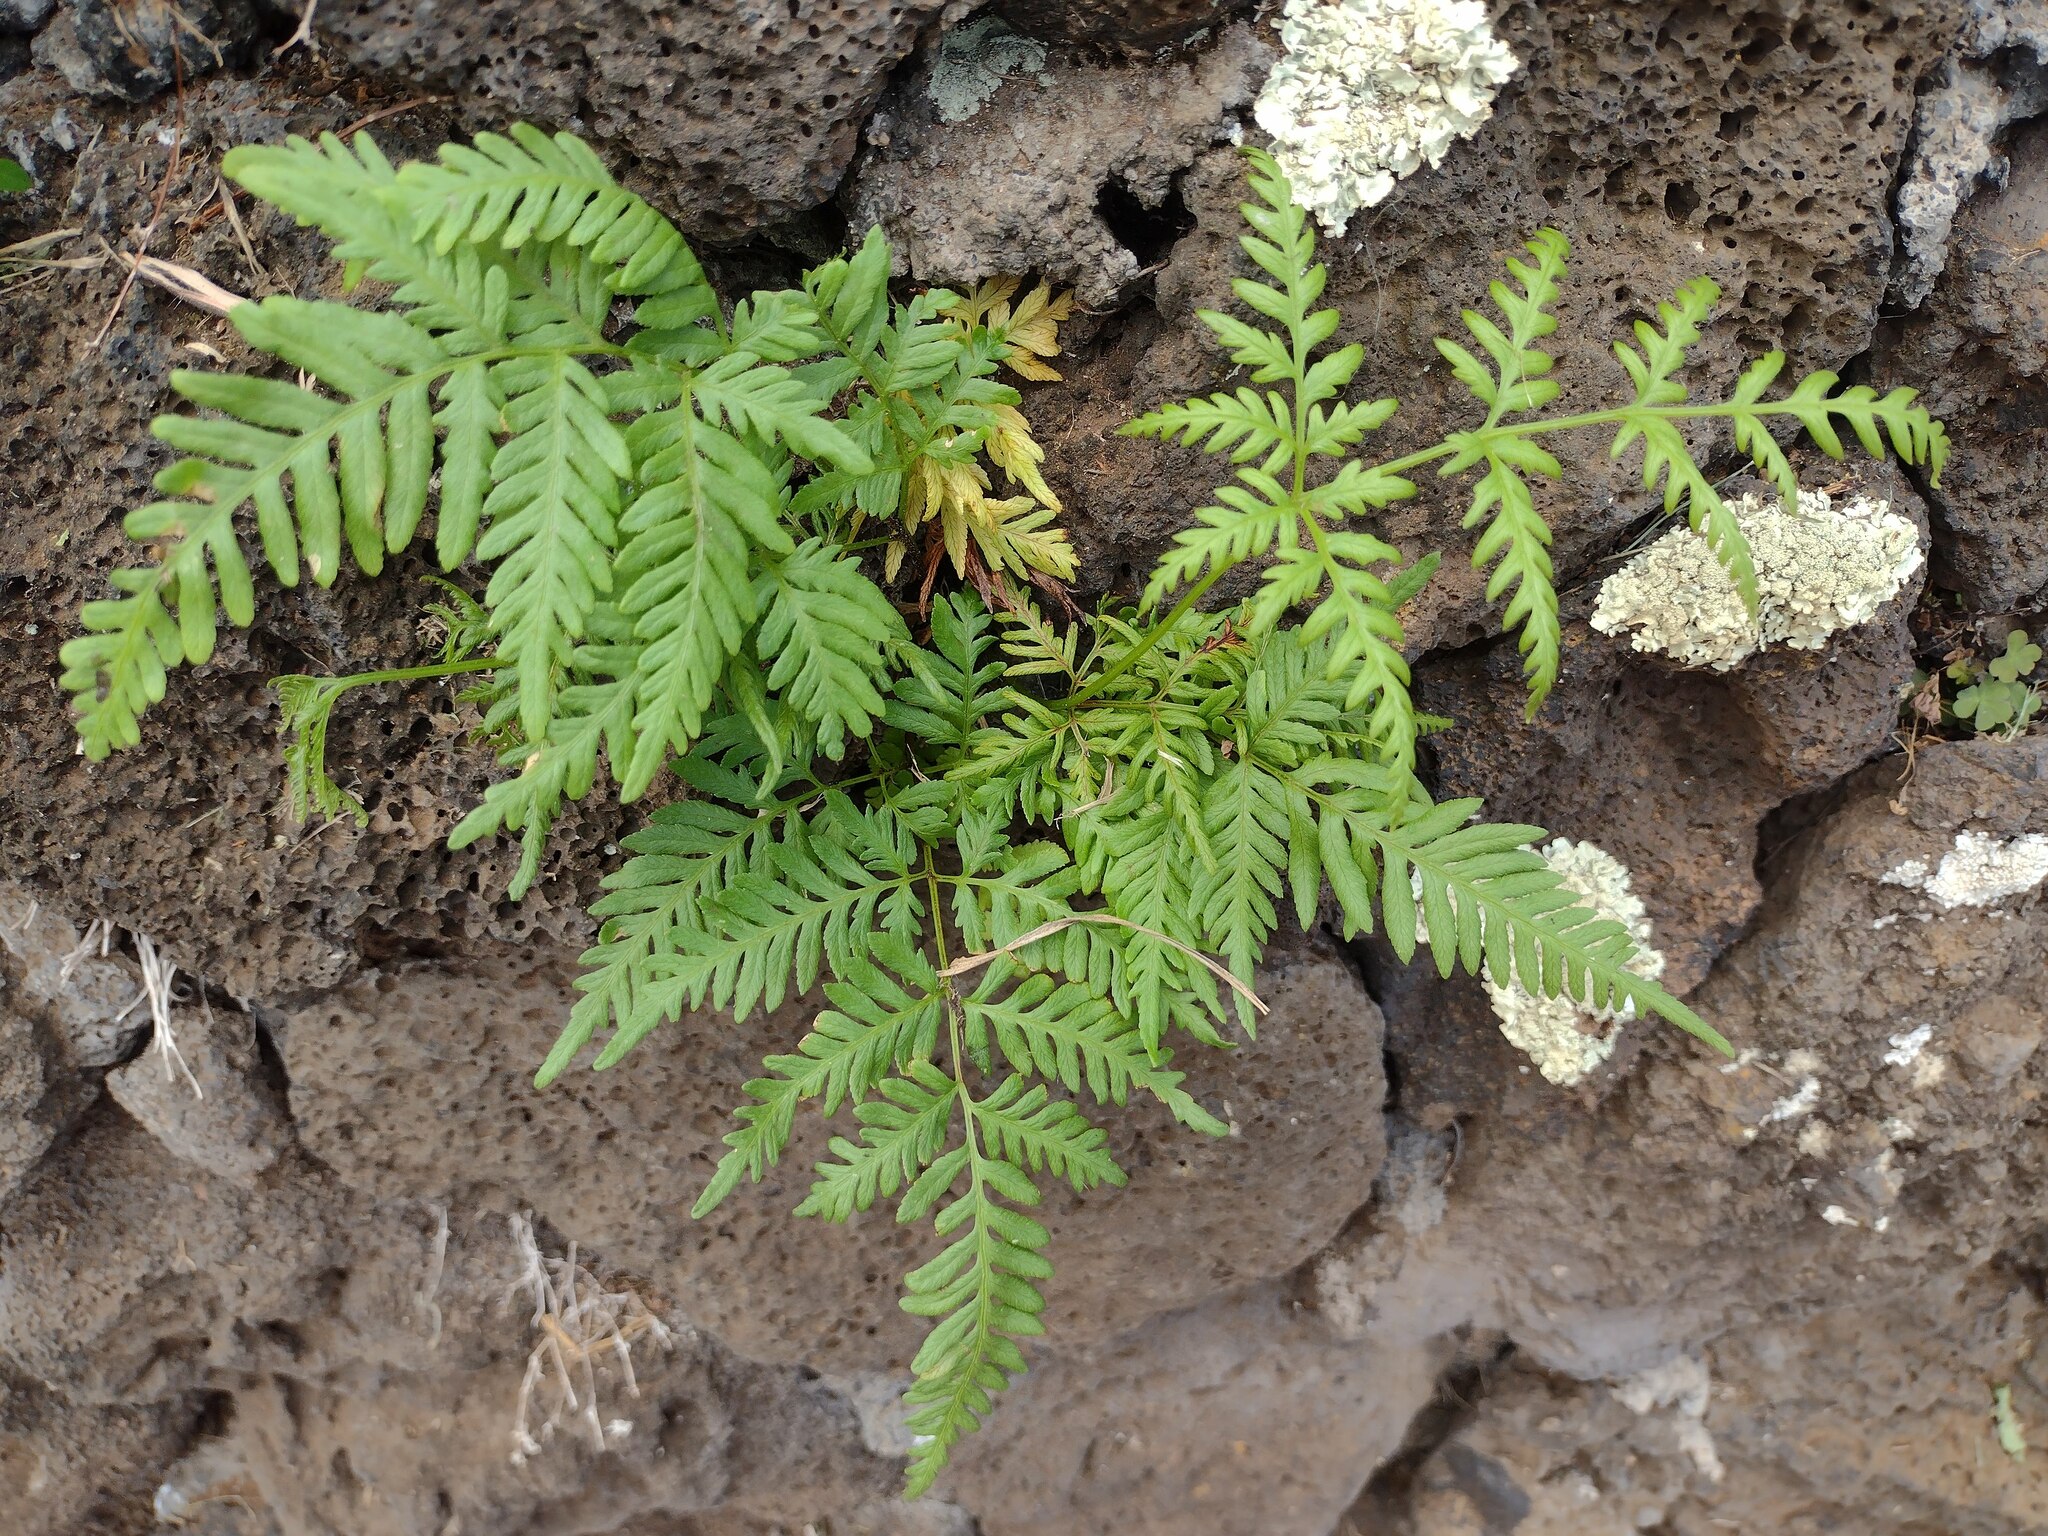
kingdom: Plantae
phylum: Tracheophyta
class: Polypodiopsida
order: Polypodiales
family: Pteridaceae
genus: Pteris
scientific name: Pteris tremula
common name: Australian brake
